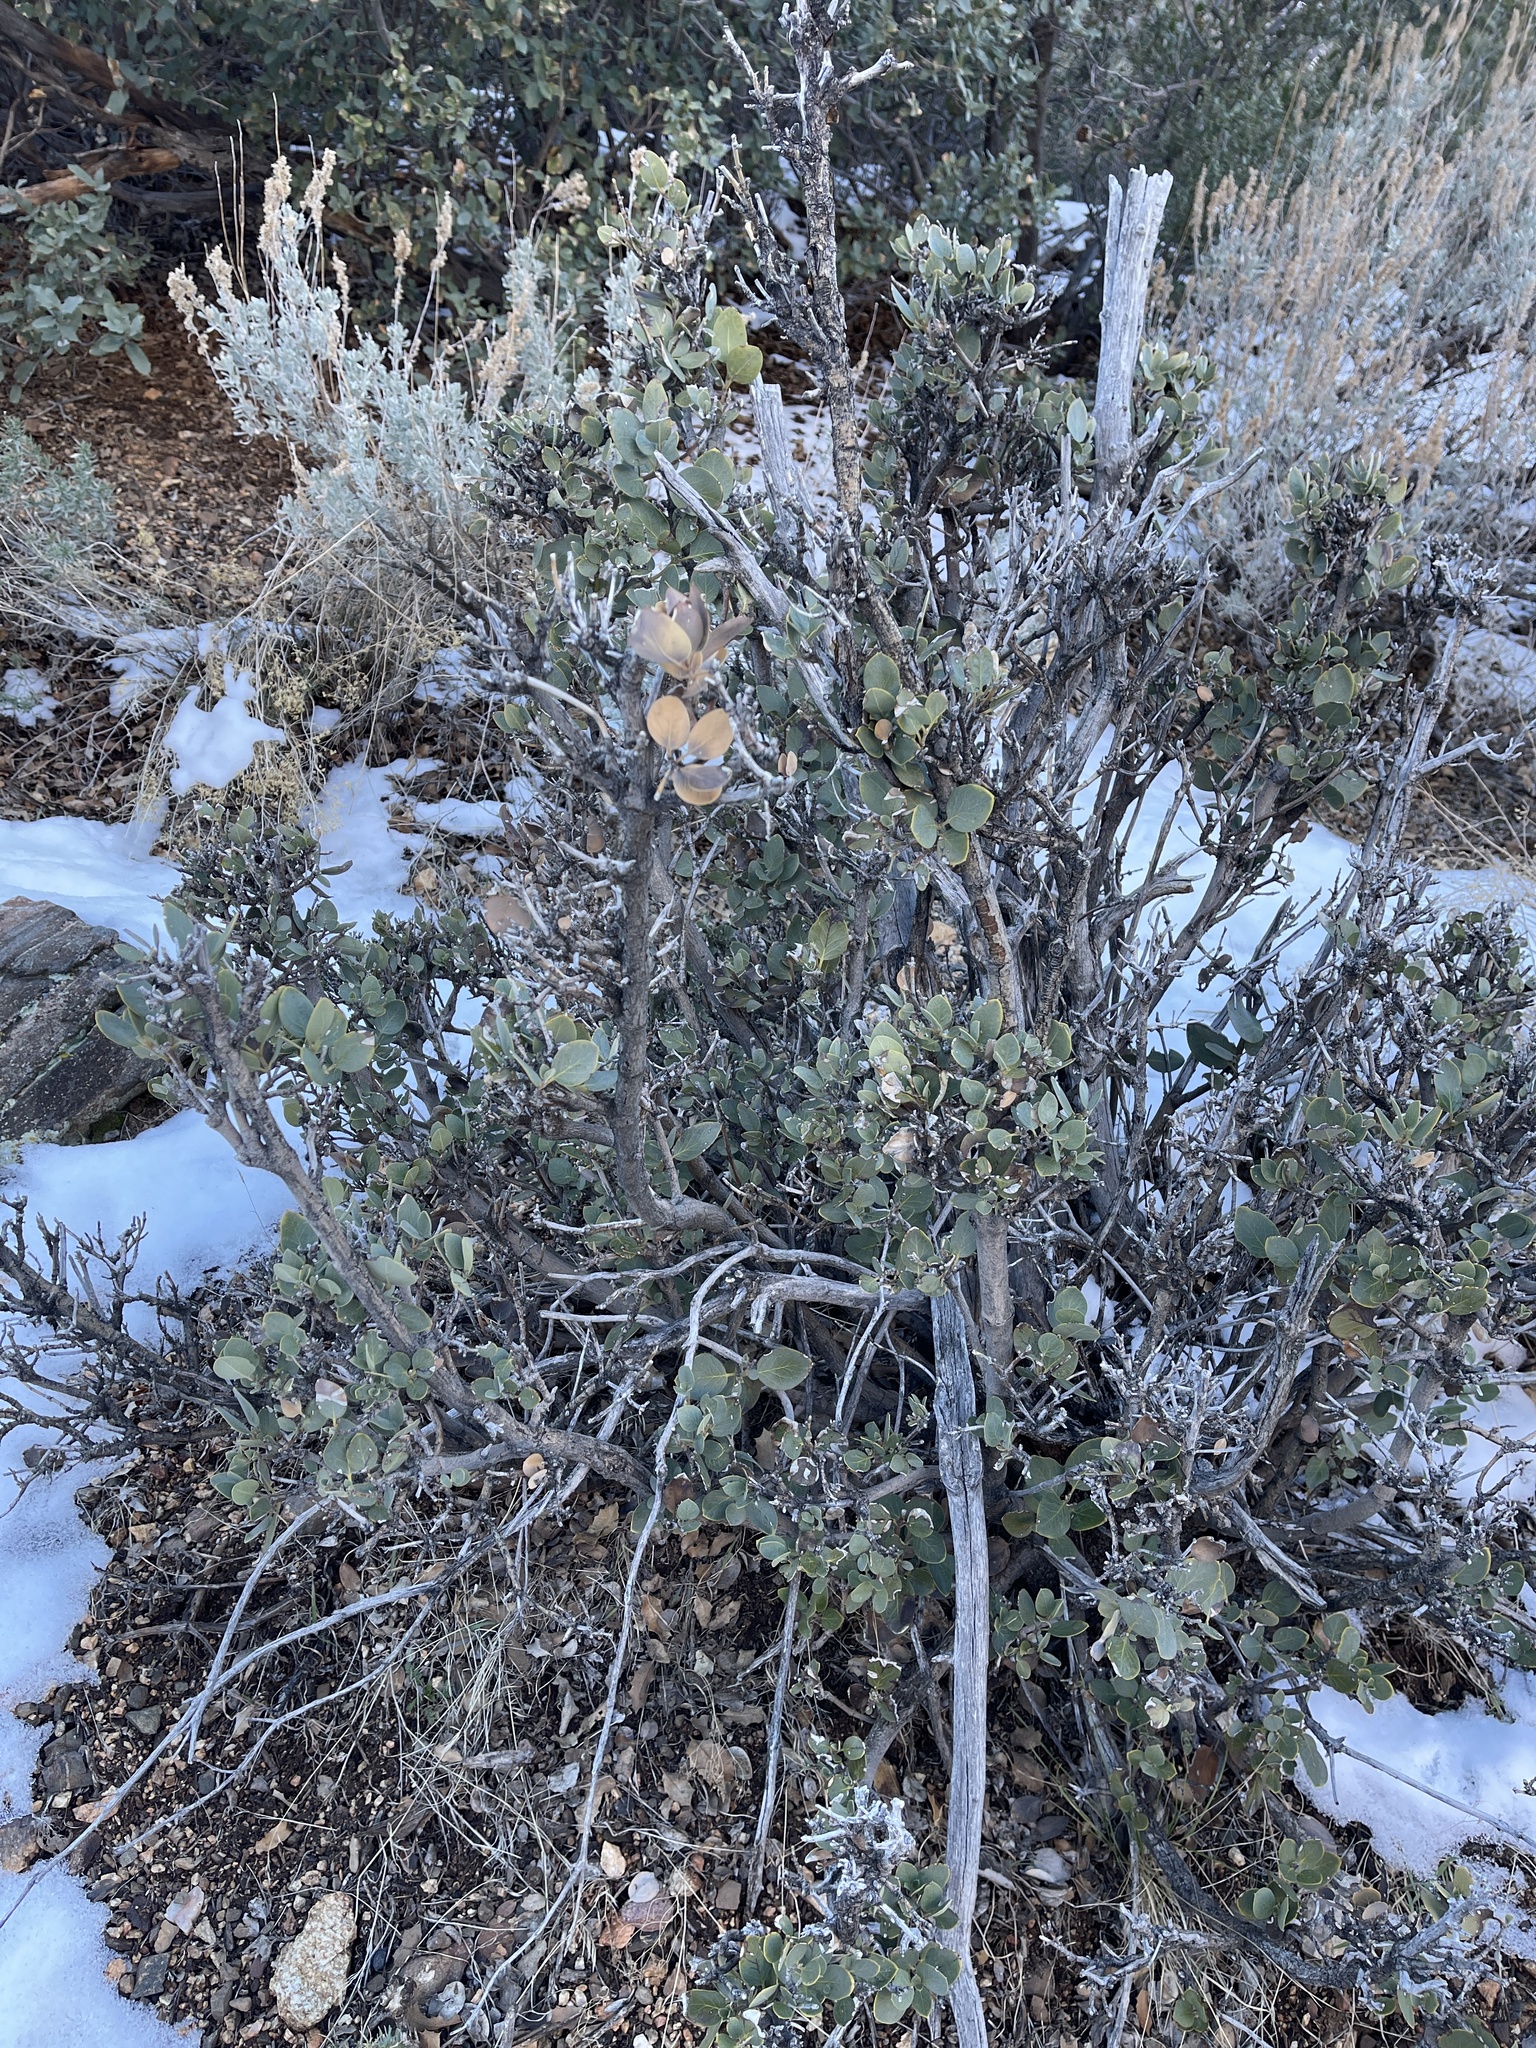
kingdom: Plantae
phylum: Tracheophyta
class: Magnoliopsida
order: Garryales
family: Garryaceae
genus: Garrya
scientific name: Garrya flavescens
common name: Ashy silk-tassel
